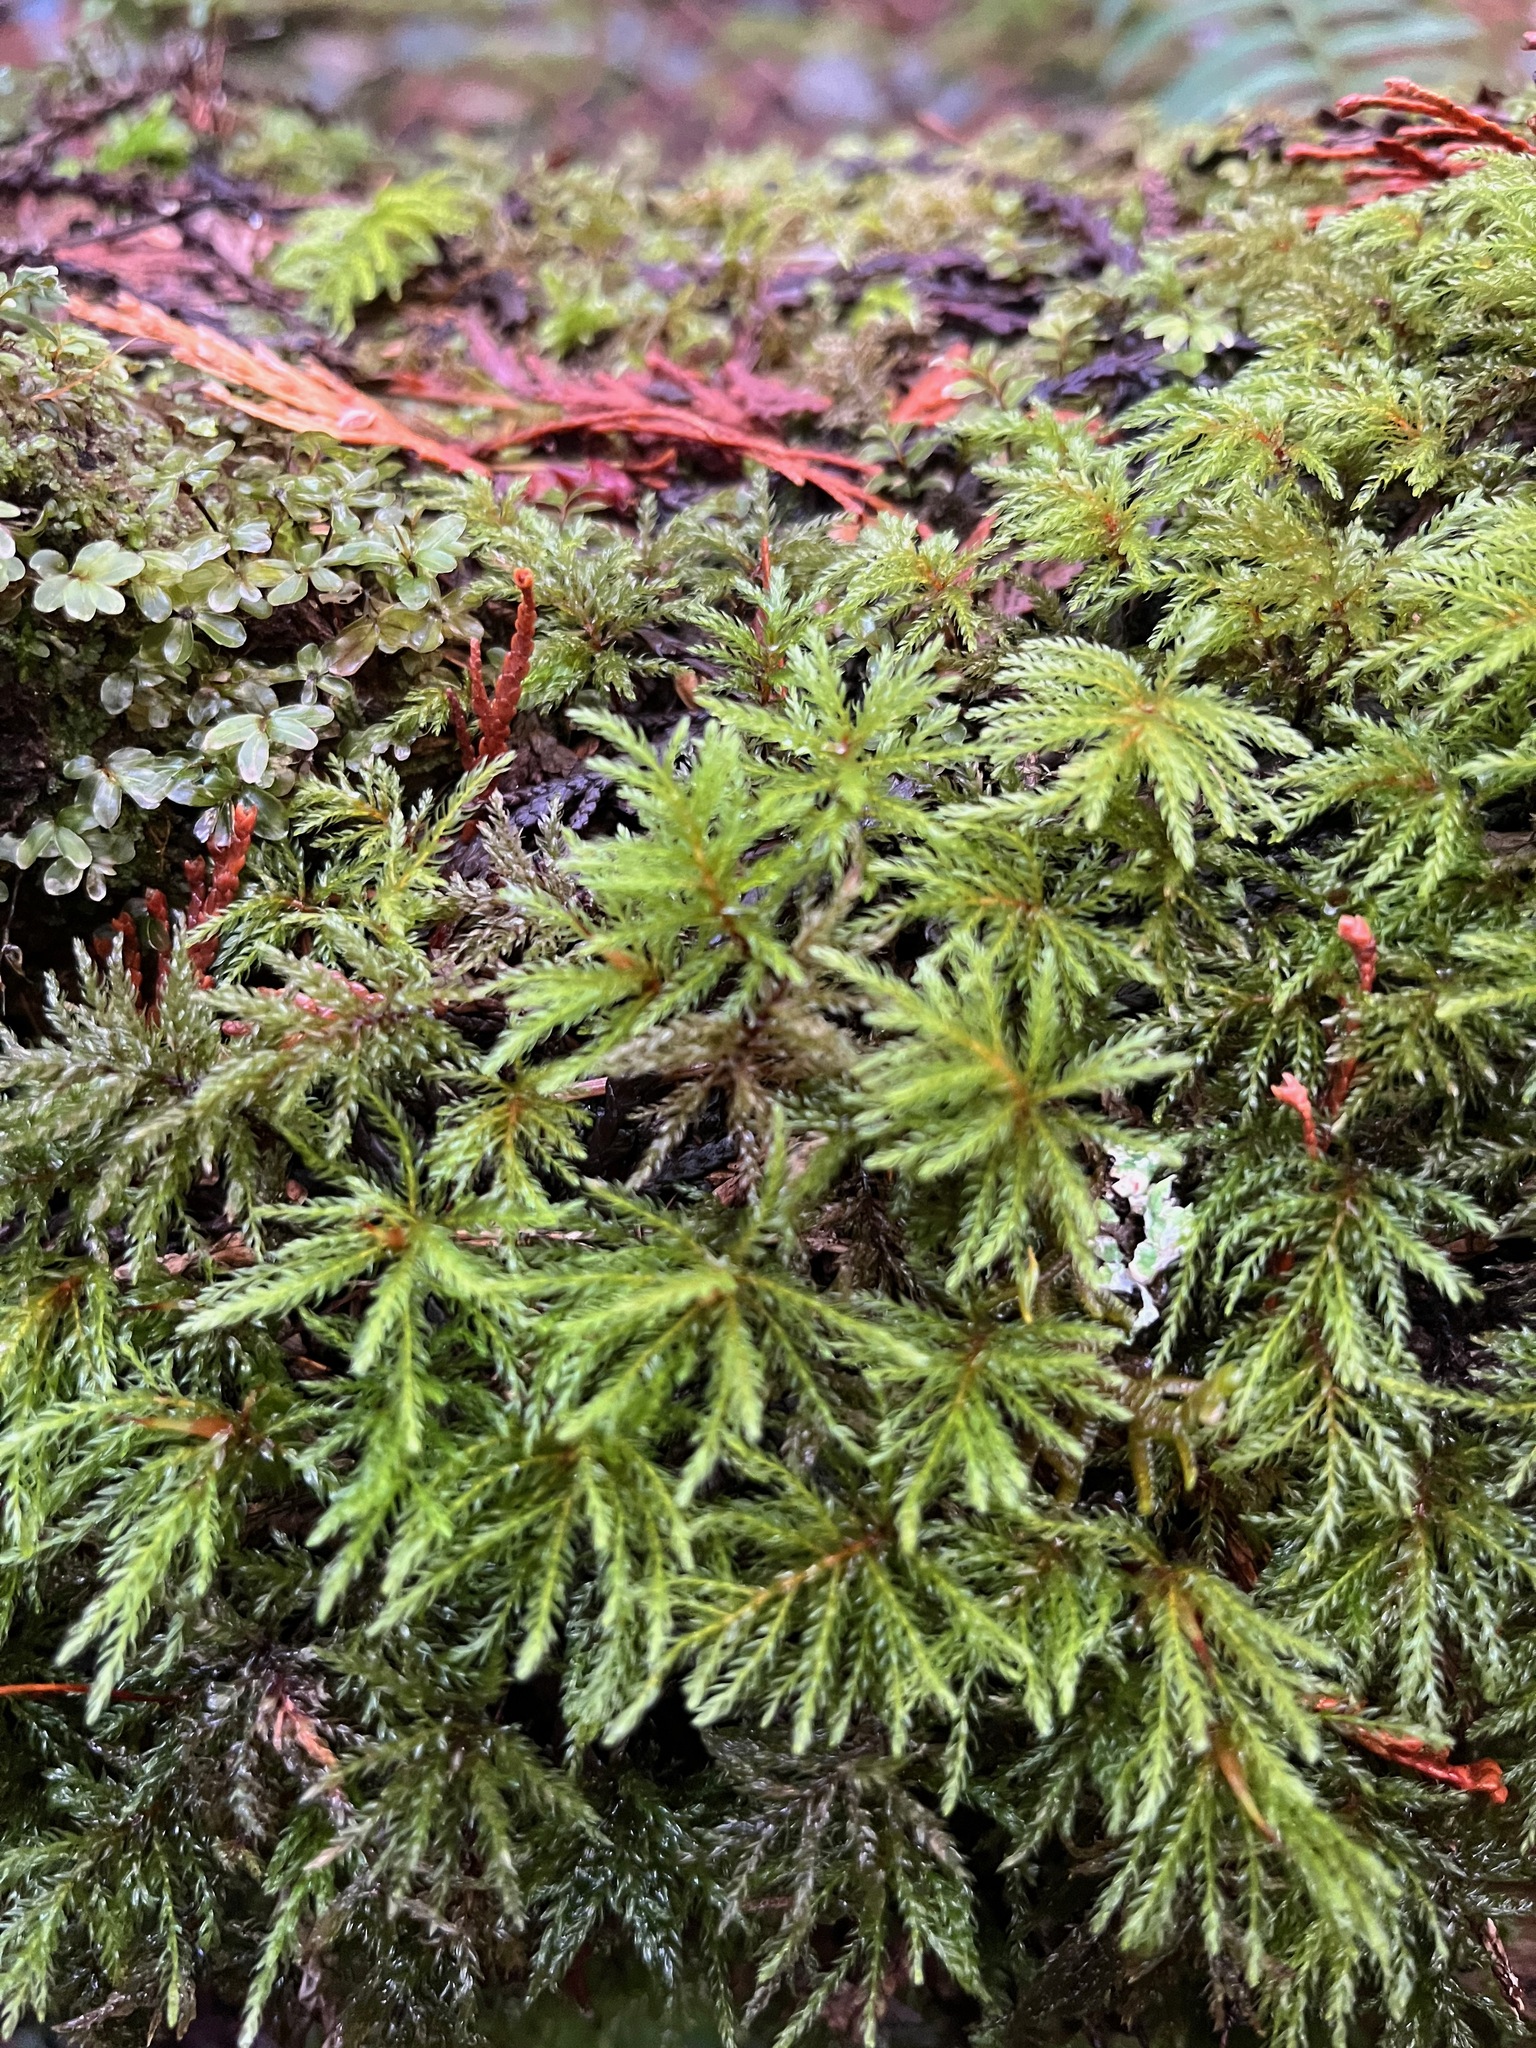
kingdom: Plantae
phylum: Bryophyta
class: Bryopsida
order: Bryales
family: Mniaceae
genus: Leucolepis
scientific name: Leucolepis acanthoneura
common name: Leucolepis umbrella moss
